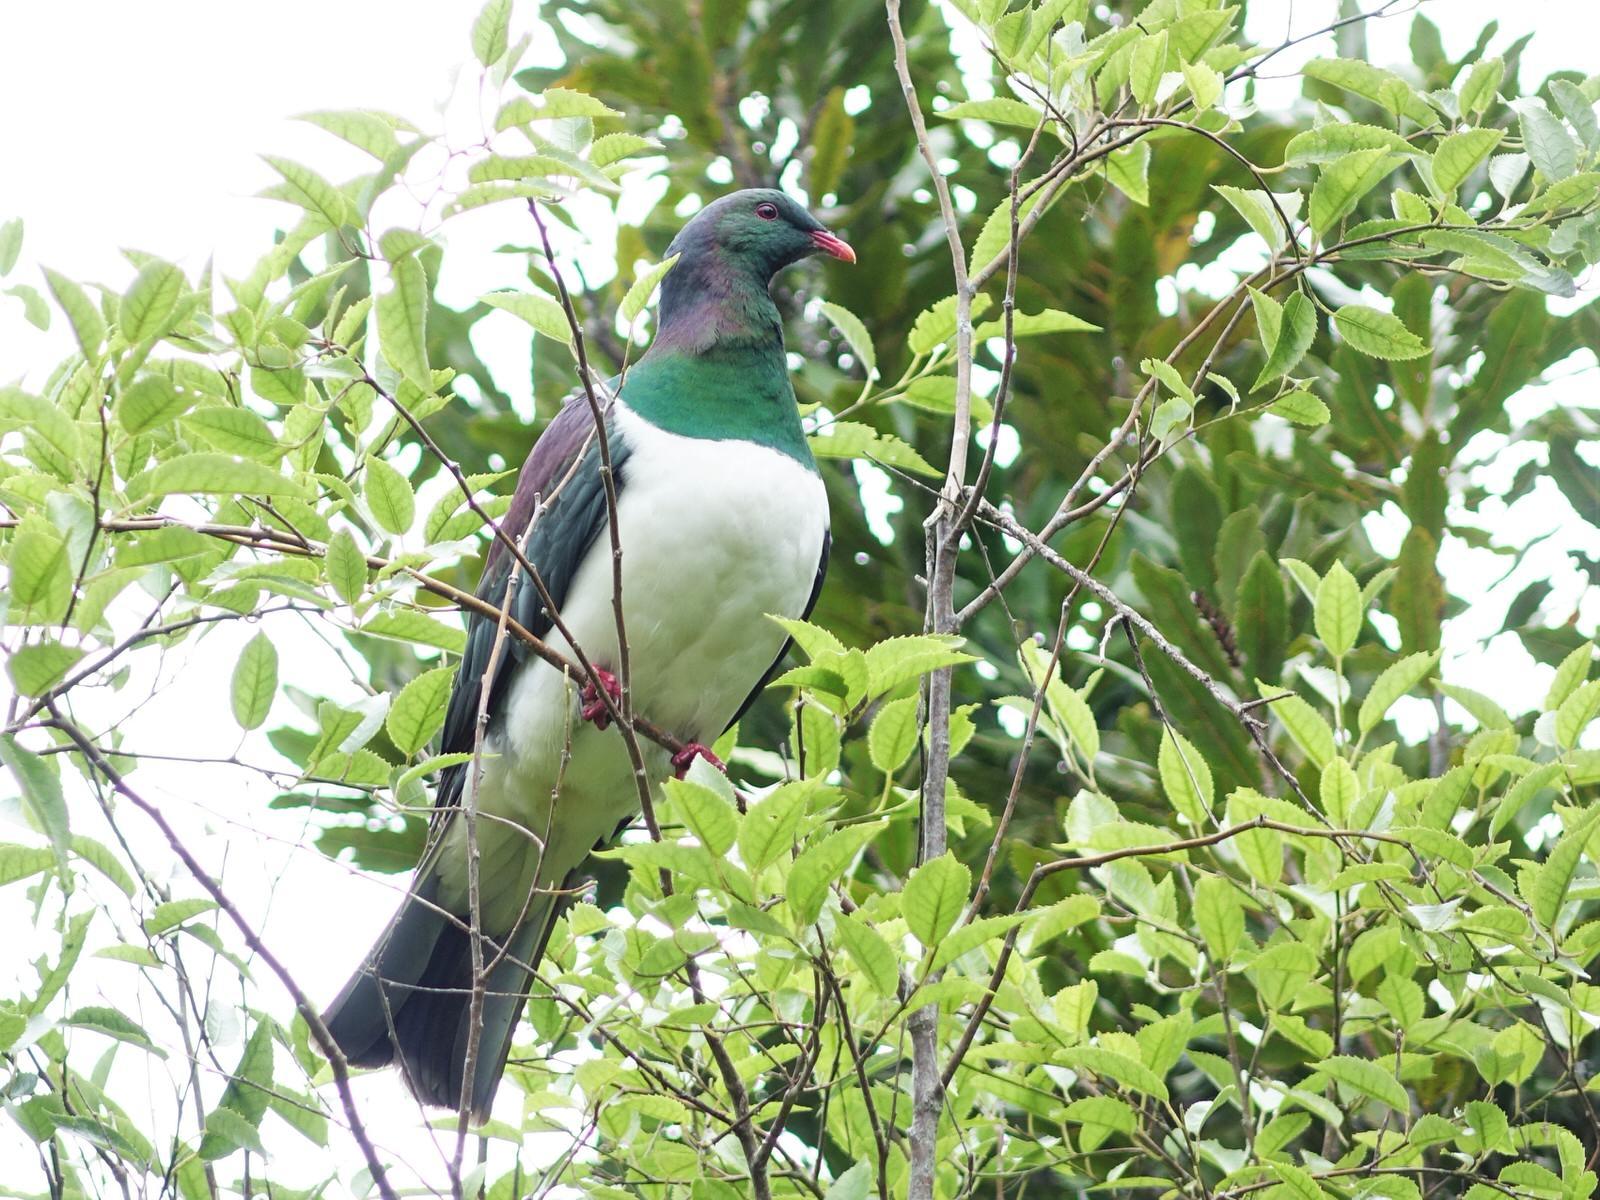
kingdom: Animalia
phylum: Chordata
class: Aves
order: Columbiformes
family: Columbidae
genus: Hemiphaga
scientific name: Hemiphaga novaeseelandiae
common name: New zealand pigeon
